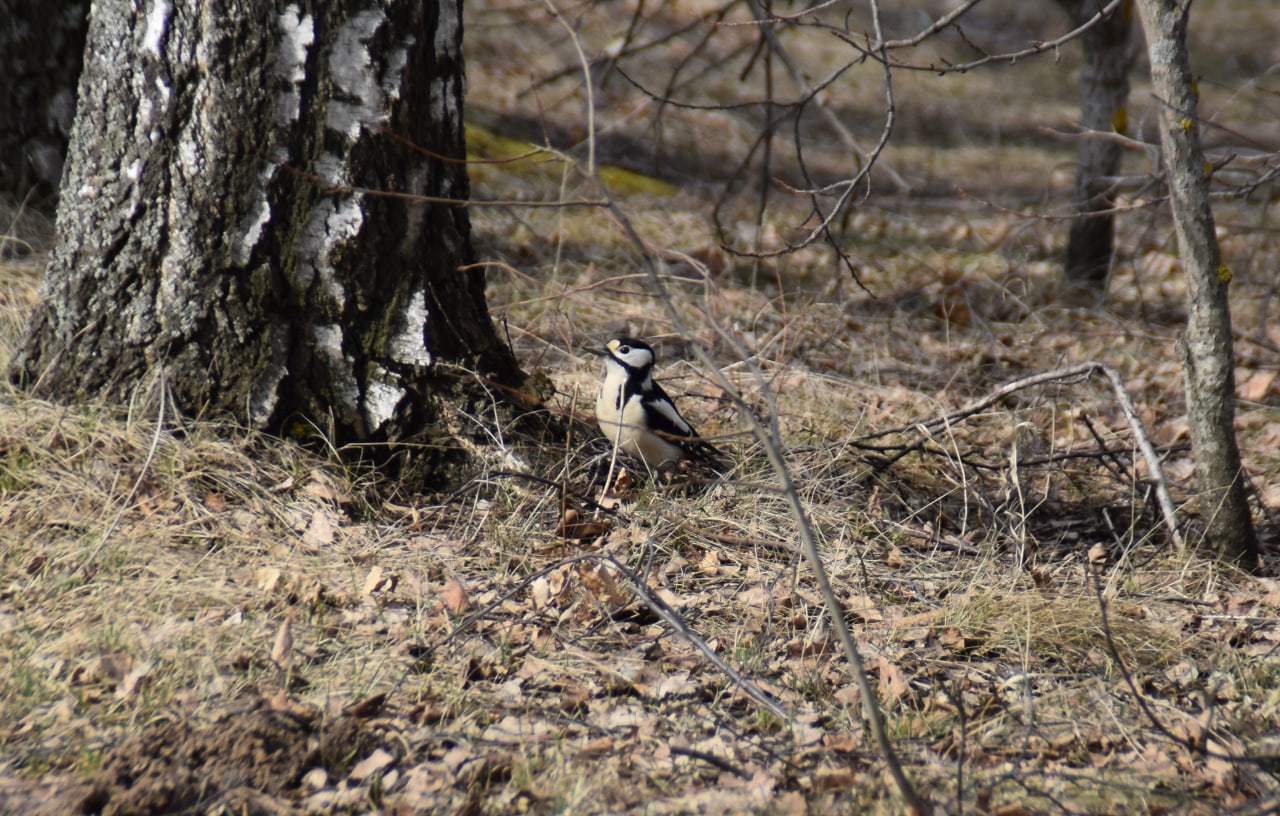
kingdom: Animalia
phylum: Chordata
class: Aves
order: Piciformes
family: Picidae
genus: Dendrocopos
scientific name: Dendrocopos major
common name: Great spotted woodpecker
